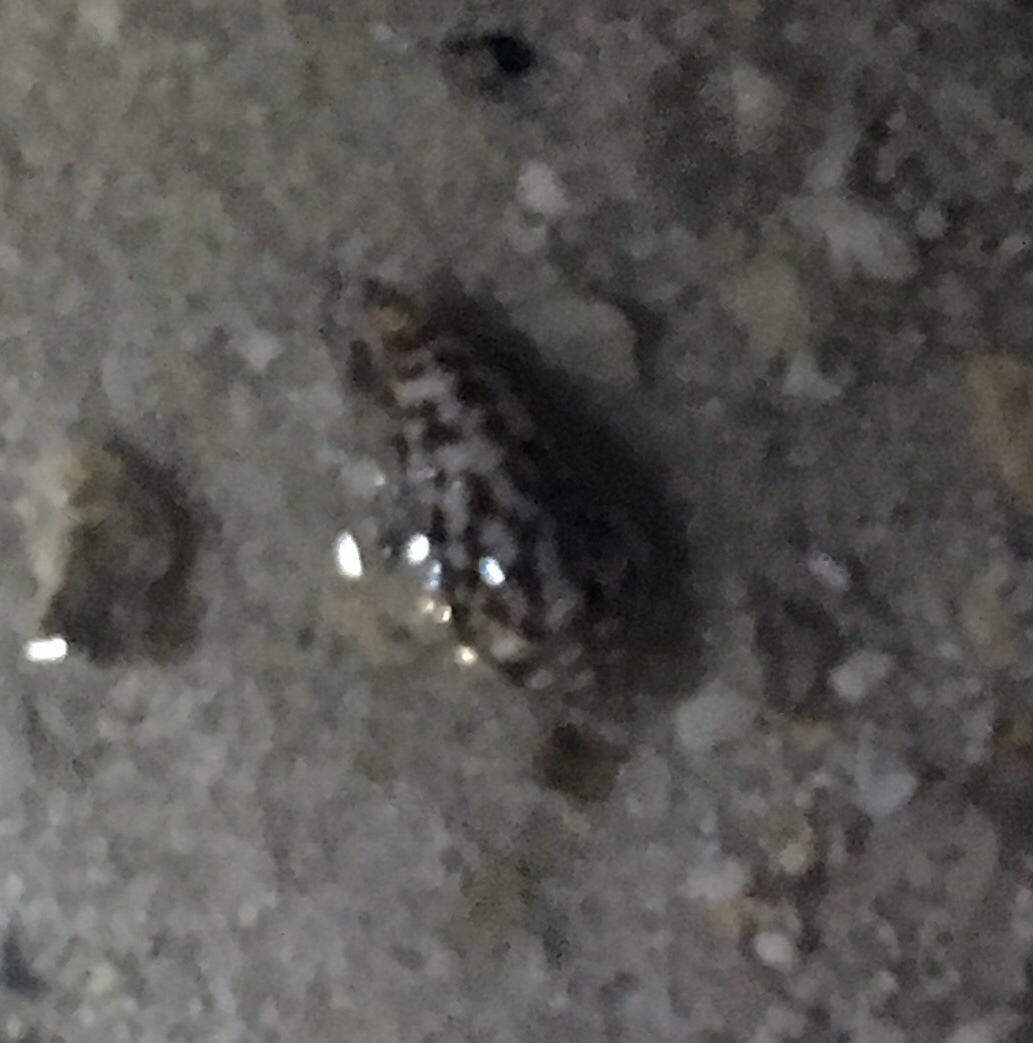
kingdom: Animalia
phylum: Mollusca
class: Gastropoda
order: Neogastropoda
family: Conidae
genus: Conasprella
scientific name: Conasprella pealii
